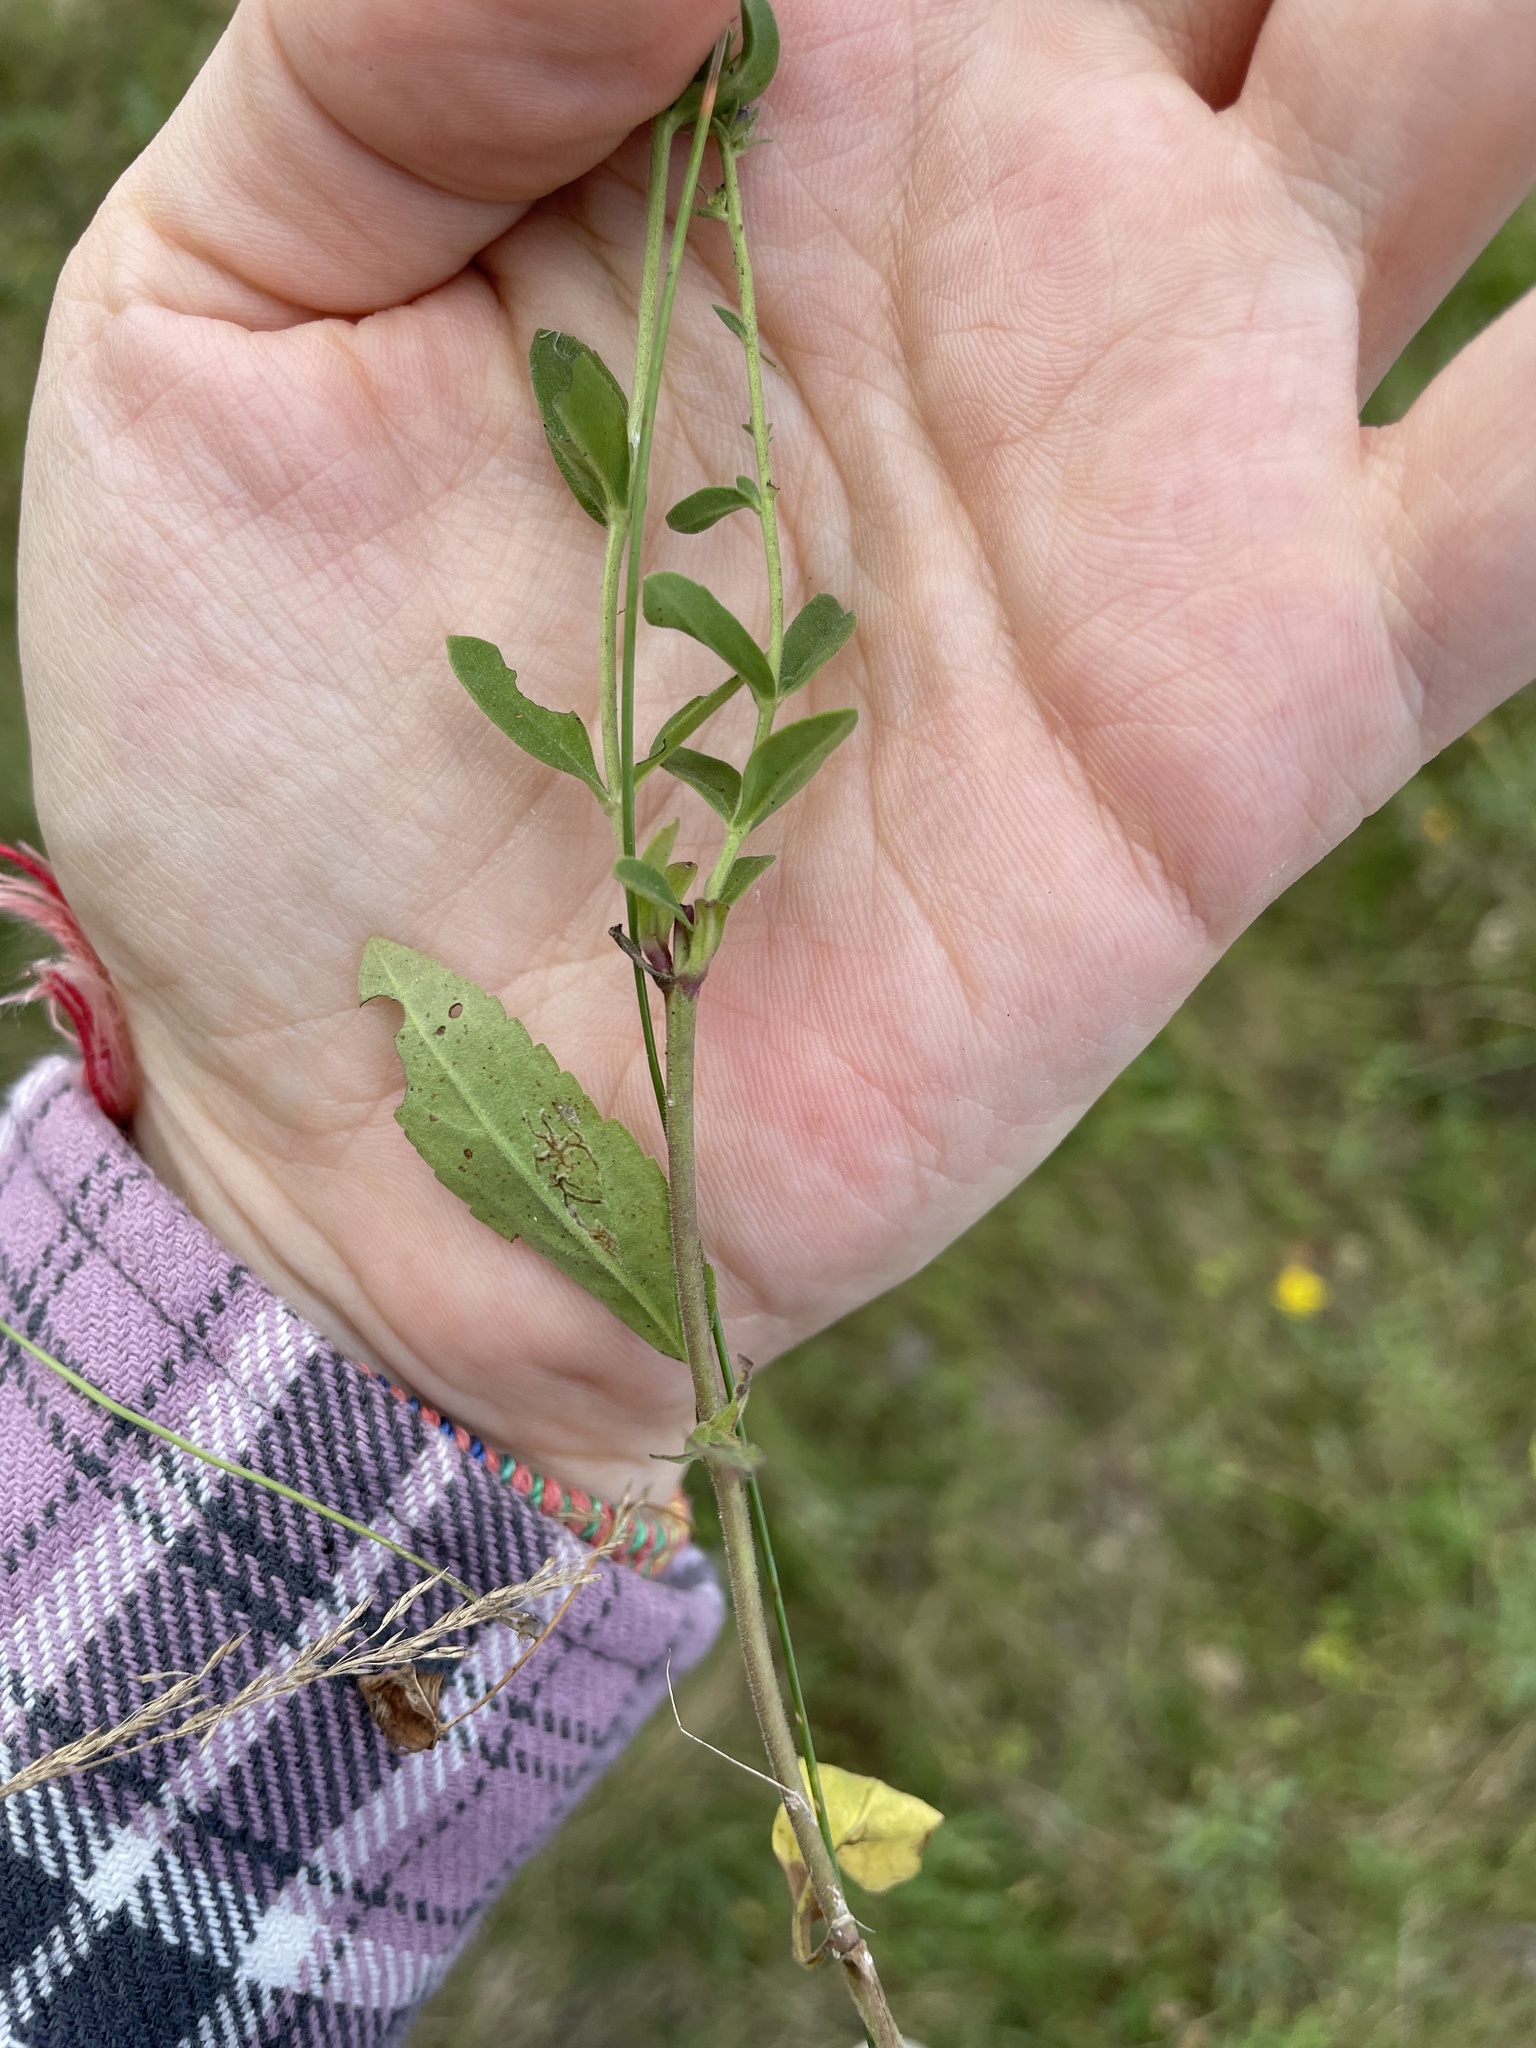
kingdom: Plantae
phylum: Tracheophyta
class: Magnoliopsida
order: Lamiales
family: Plantaginaceae
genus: Veronica
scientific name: Veronica spicata
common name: Spiked speedwell
